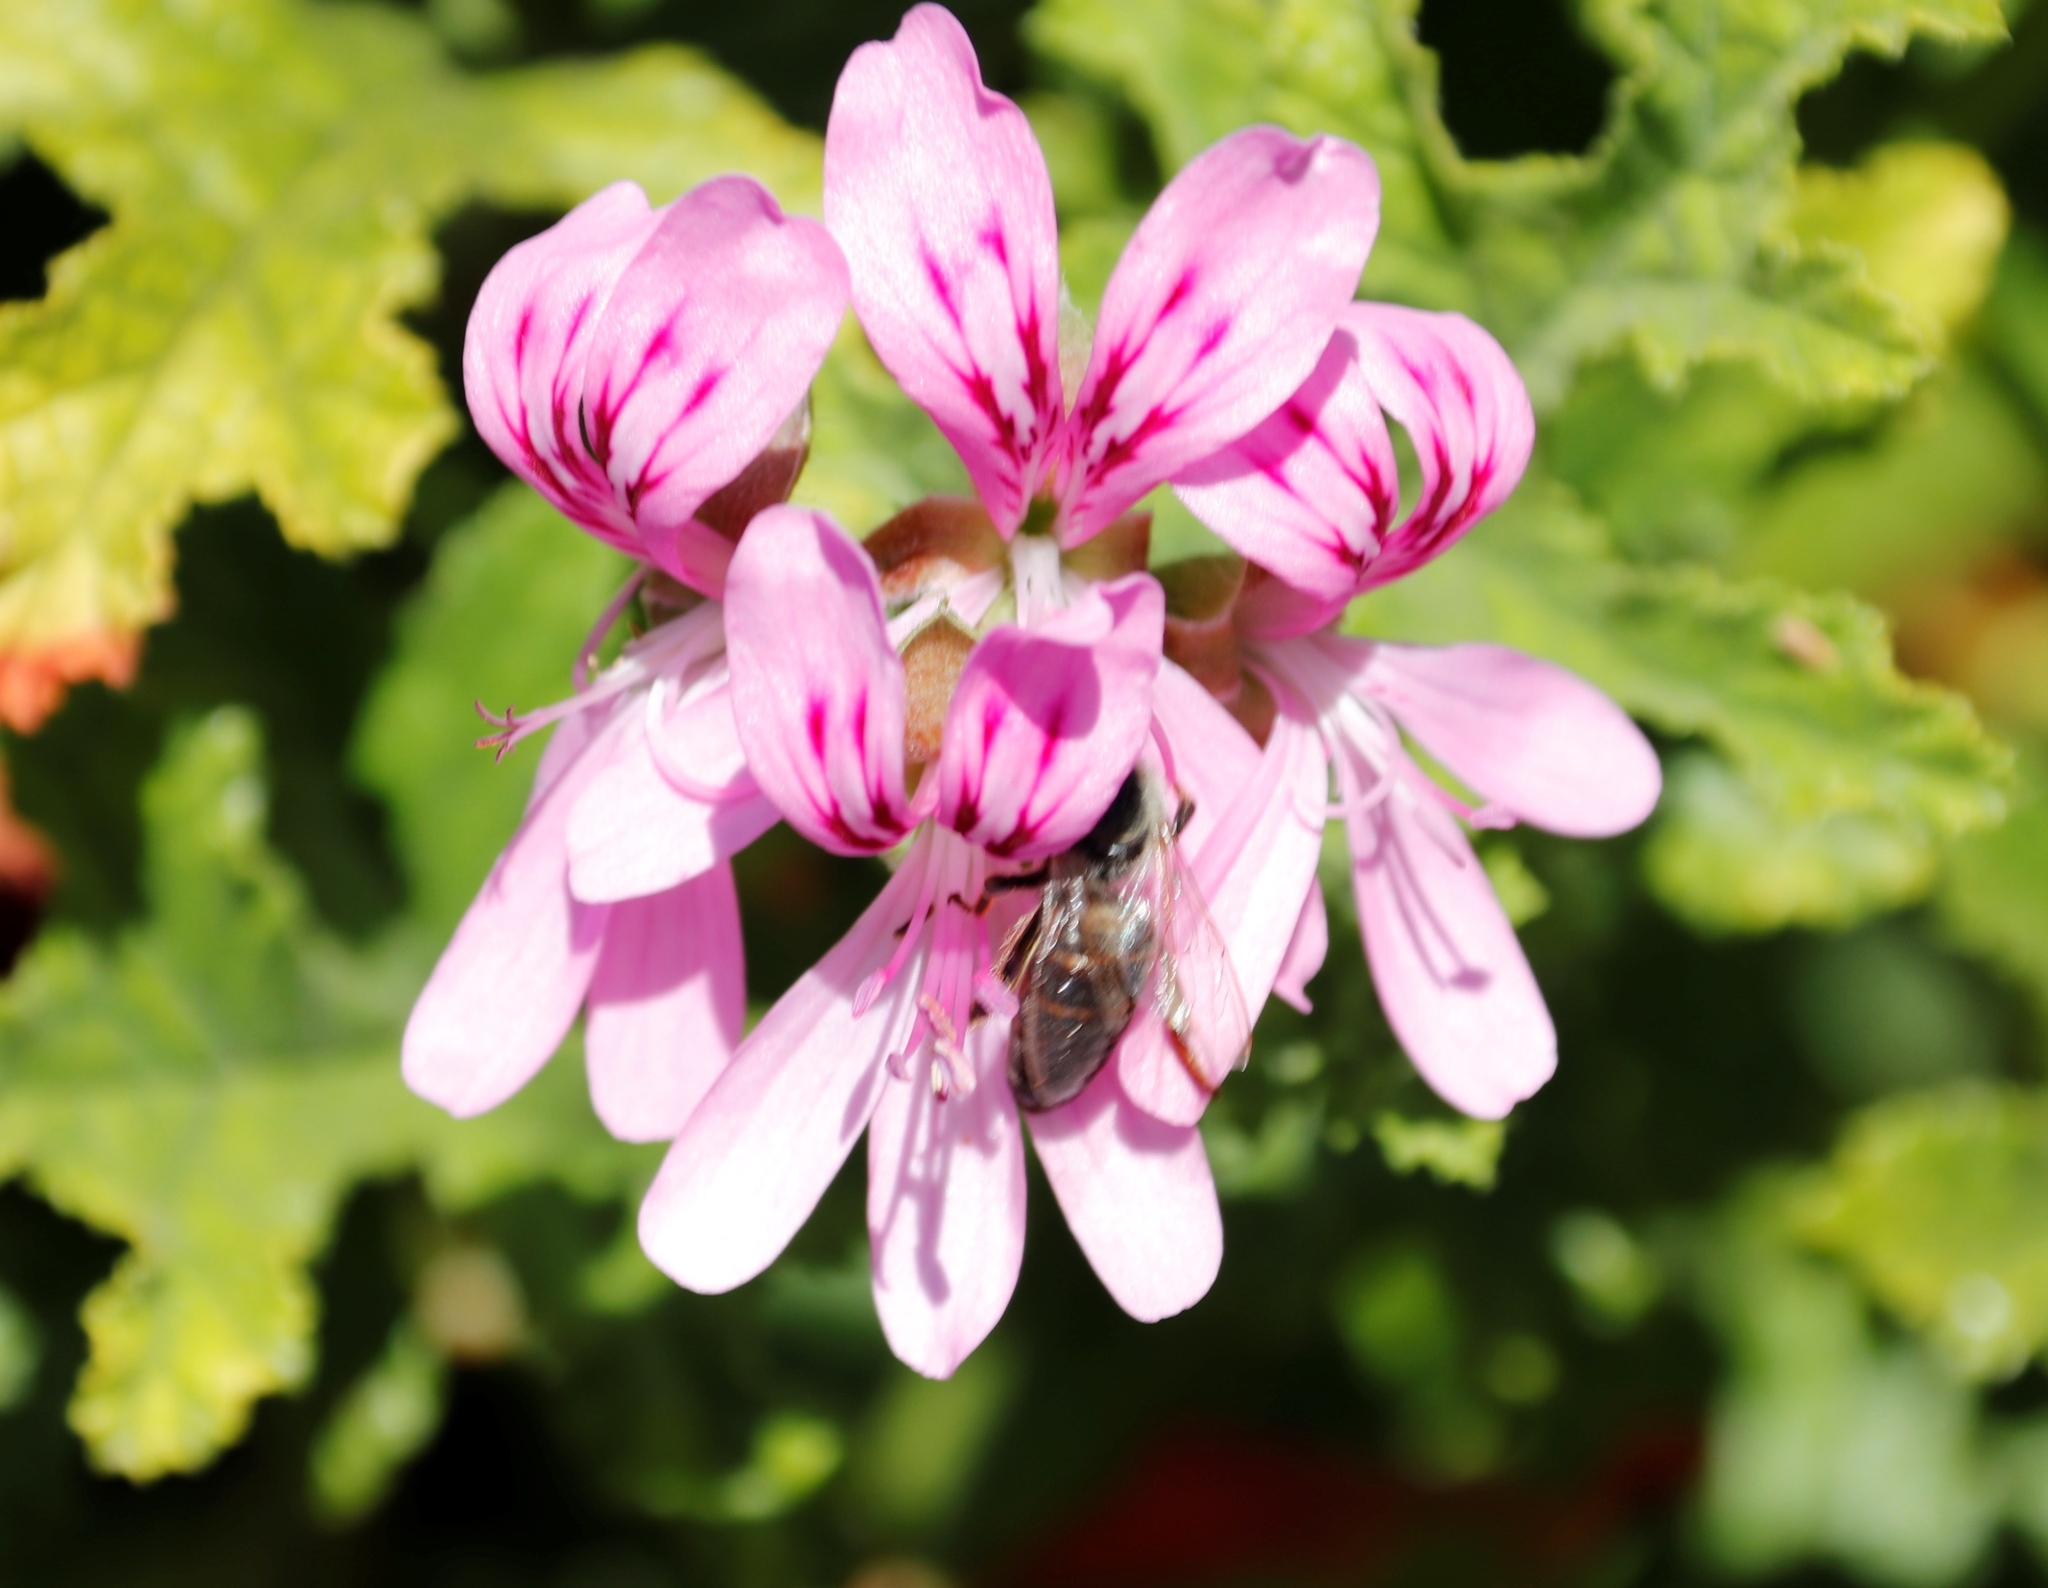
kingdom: Animalia
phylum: Arthropoda
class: Insecta
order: Hymenoptera
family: Apidae
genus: Apis
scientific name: Apis mellifera
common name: Honey bee
